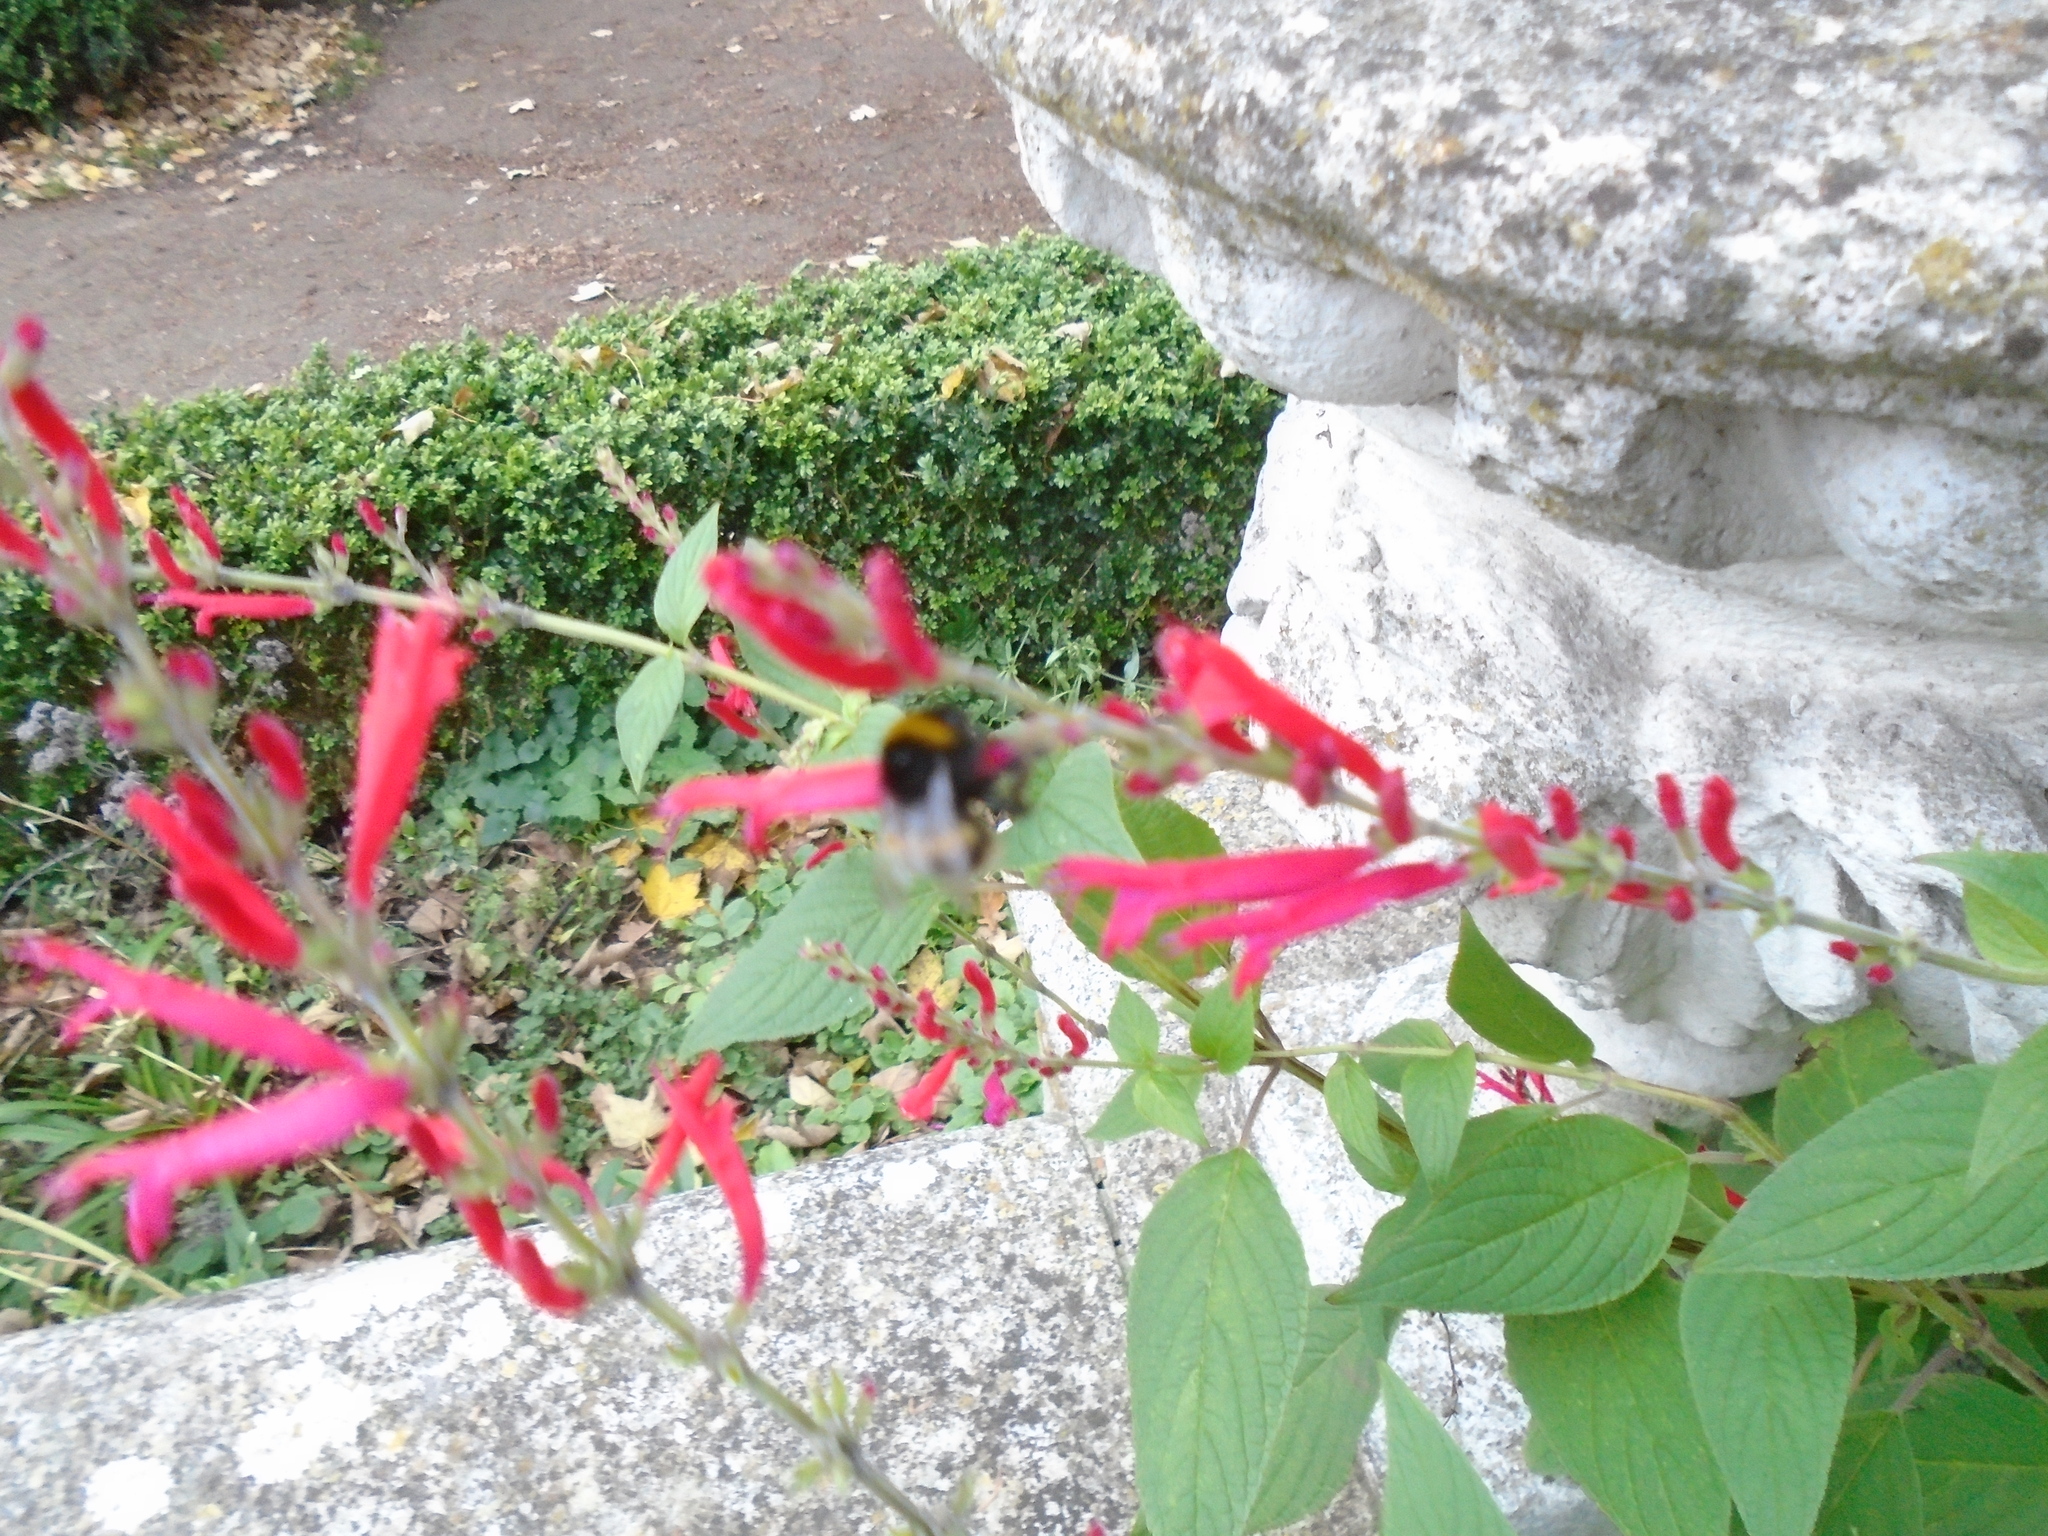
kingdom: Animalia
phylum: Arthropoda
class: Insecta
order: Hymenoptera
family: Apidae
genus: Bombus
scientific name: Bombus terrestris
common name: Buff-tailed bumblebee
